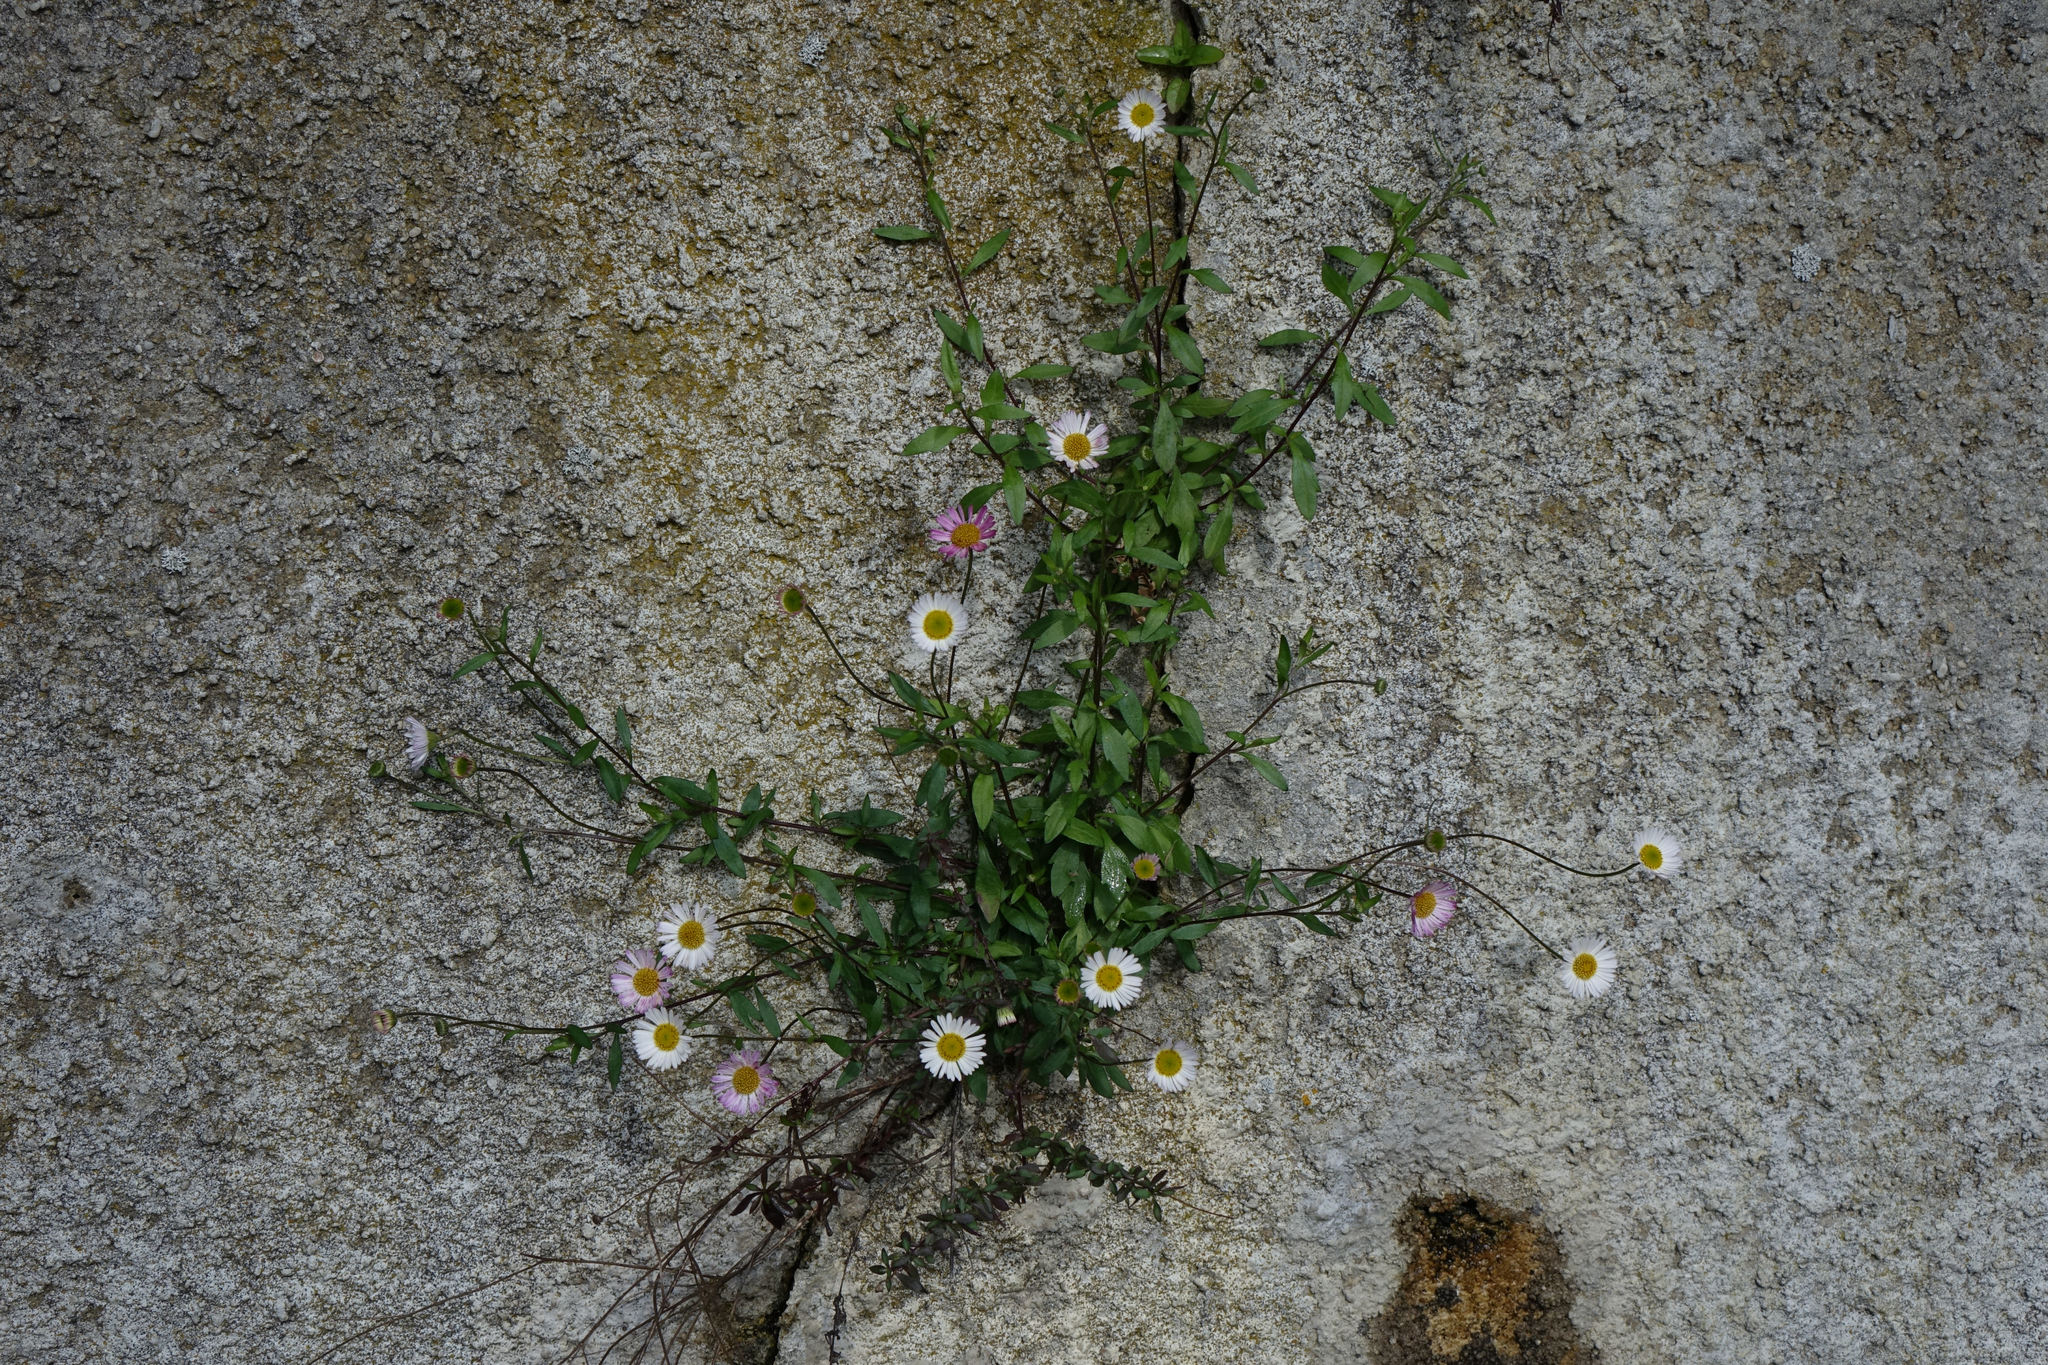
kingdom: Plantae
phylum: Tracheophyta
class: Magnoliopsida
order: Asterales
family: Asteraceae
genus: Erigeron
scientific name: Erigeron karvinskianus
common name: Mexican fleabane
